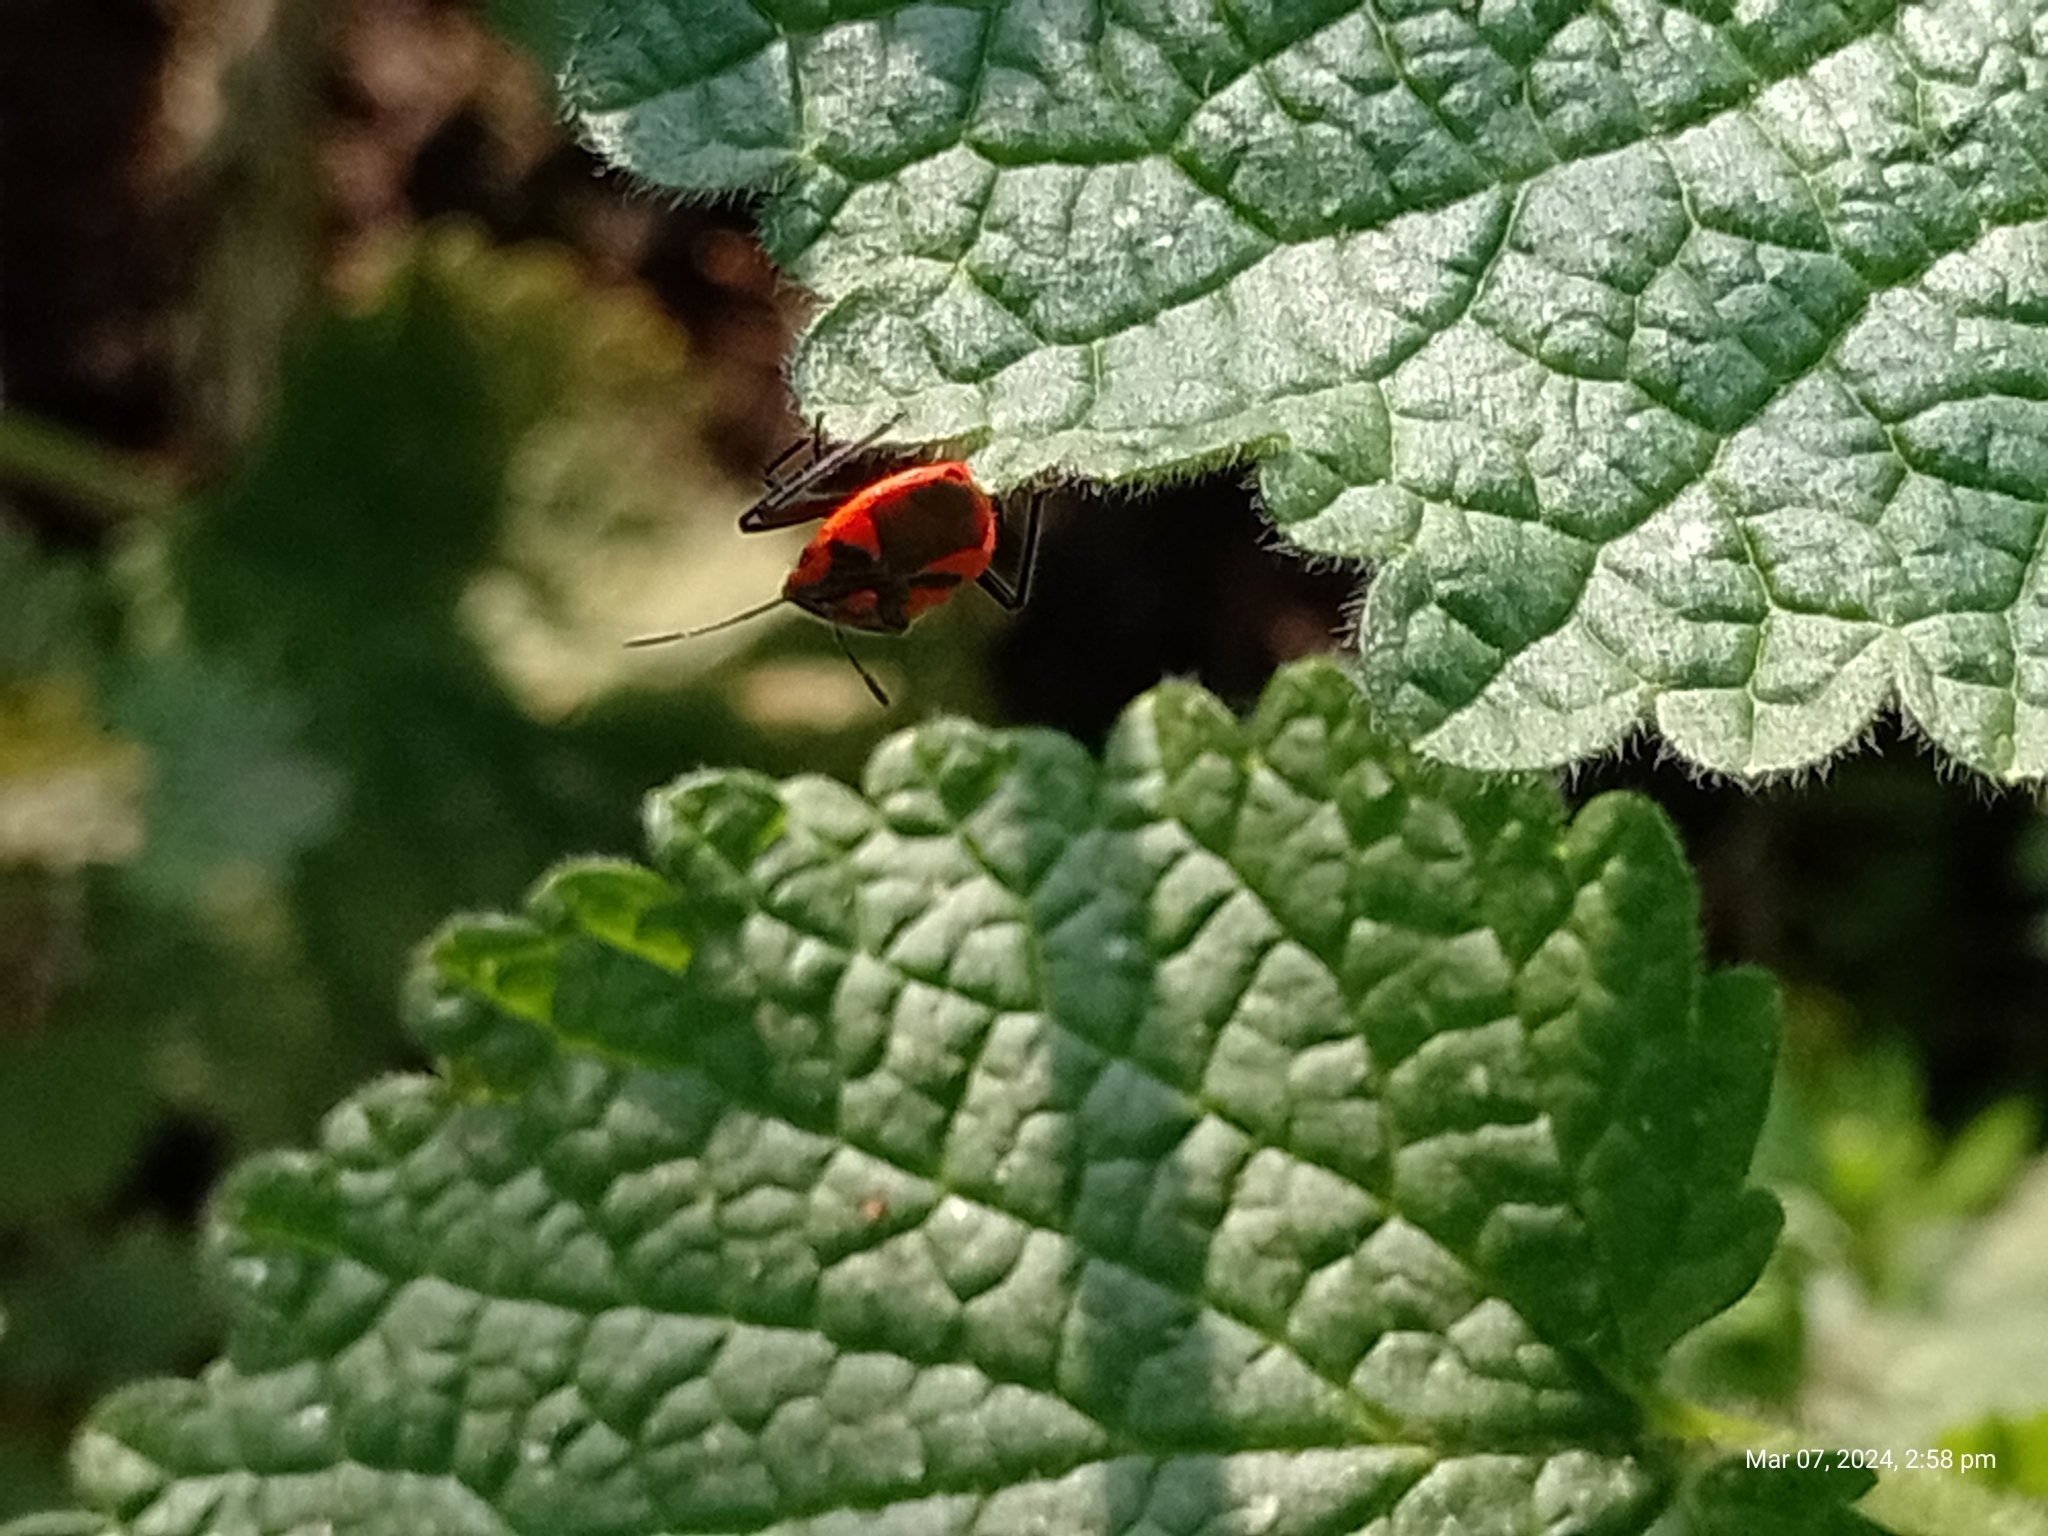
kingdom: Animalia
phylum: Arthropoda
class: Insecta
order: Hemiptera
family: Rhopalidae
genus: Corizus
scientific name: Corizus hyoscyami
